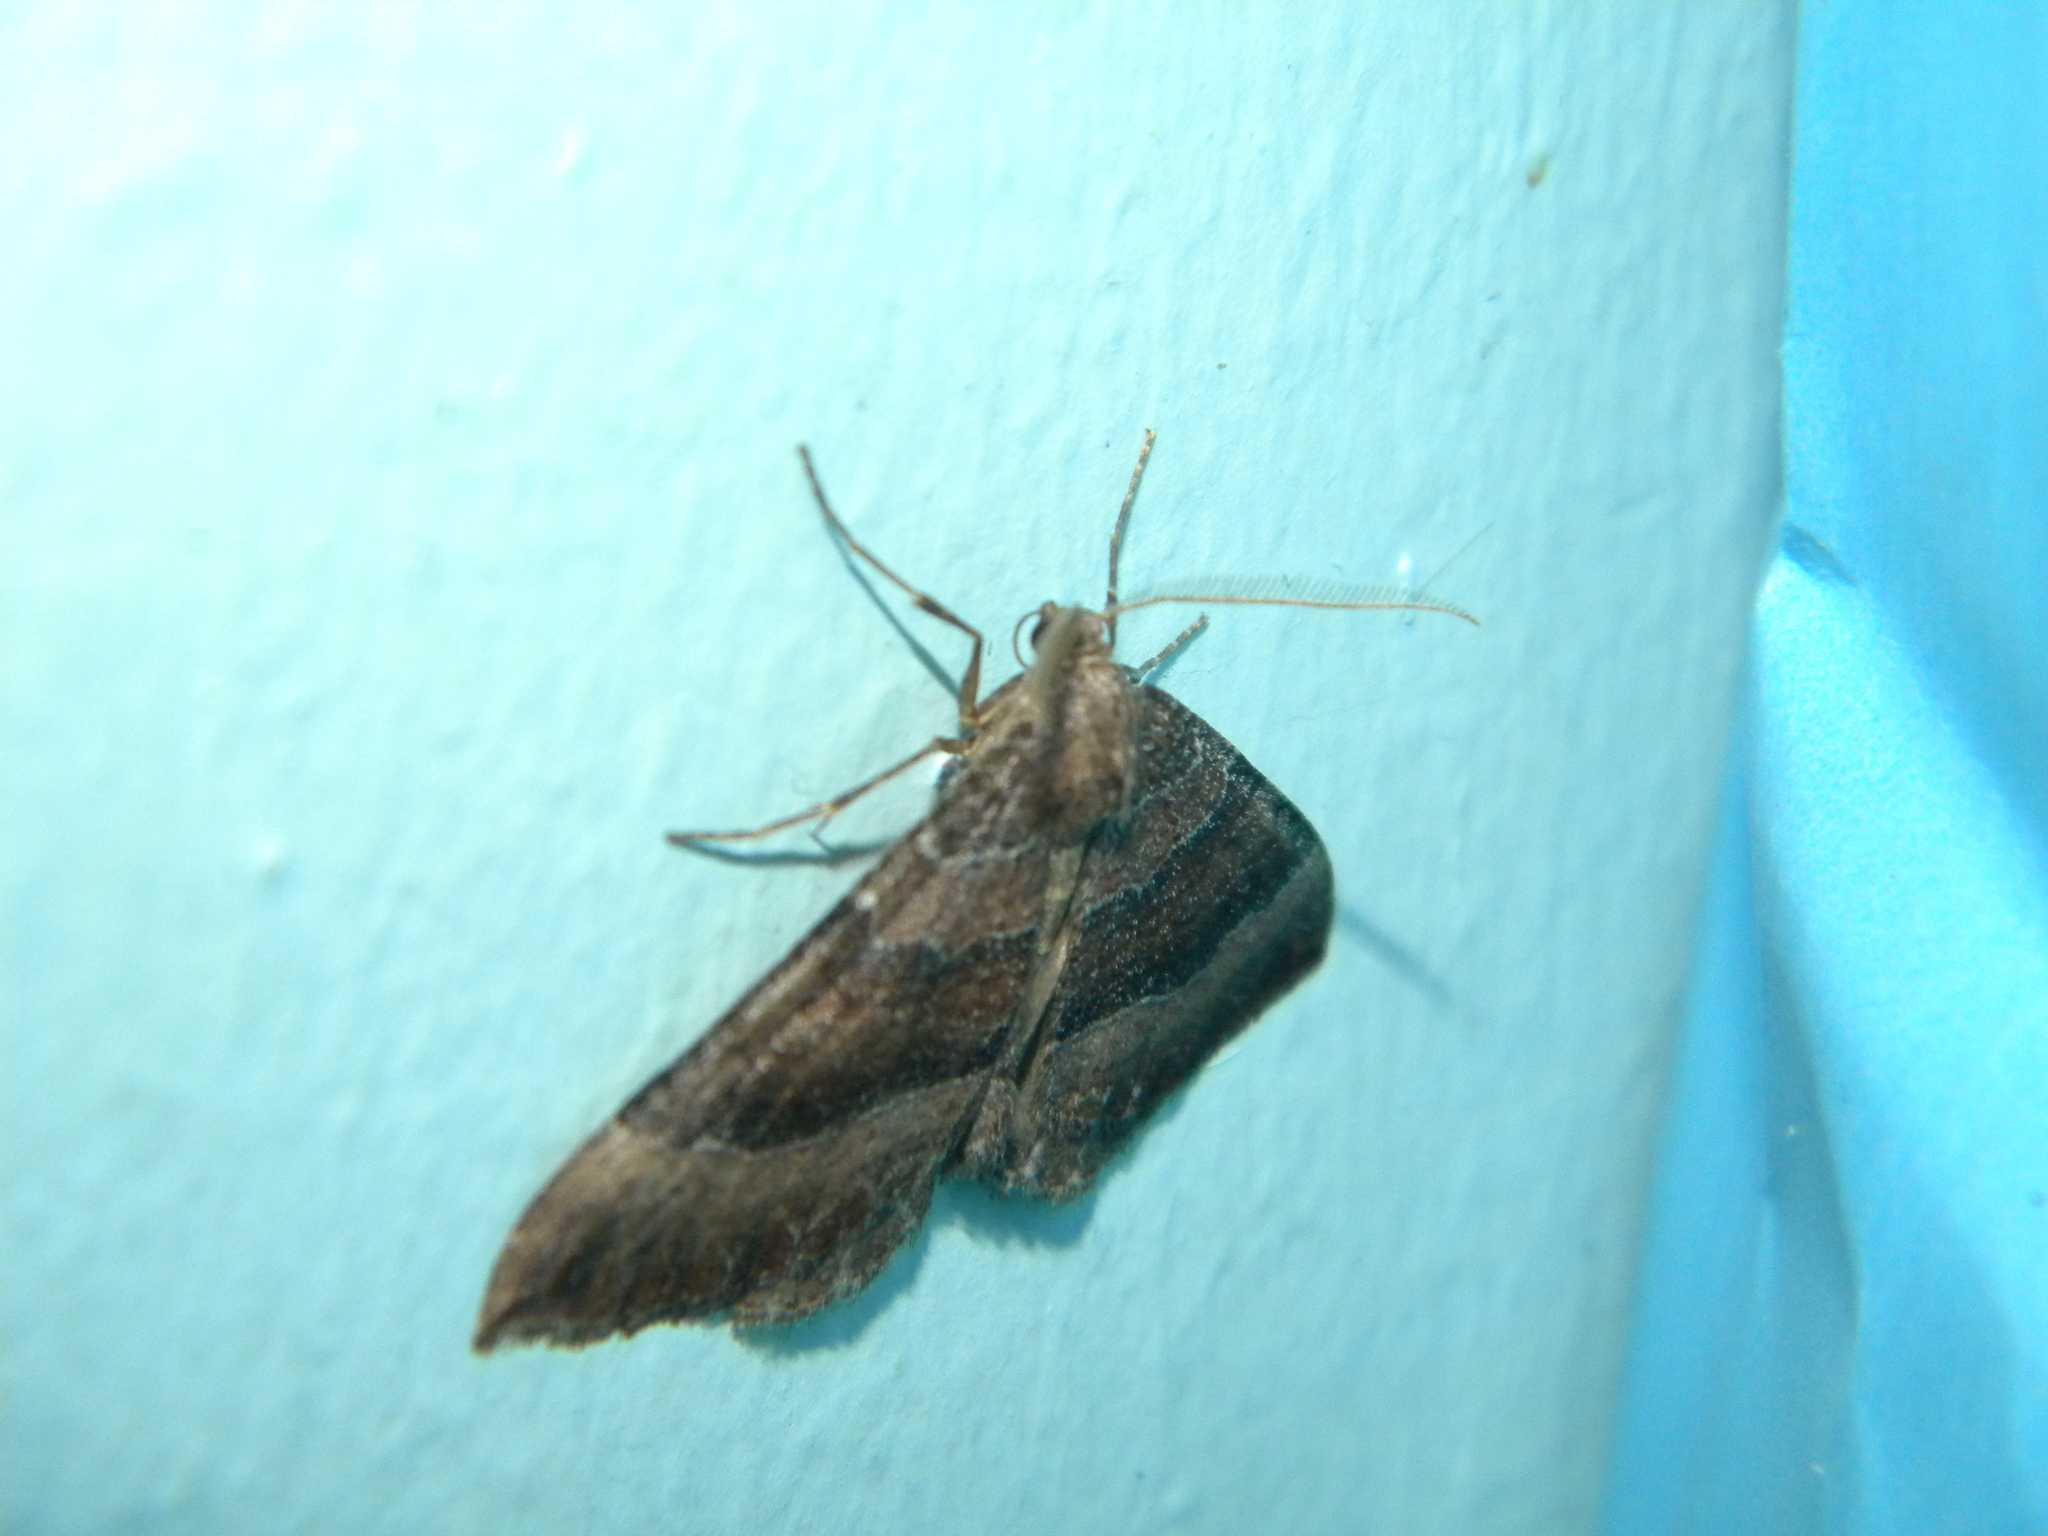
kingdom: Animalia
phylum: Arthropoda
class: Insecta
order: Lepidoptera
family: Geometridae
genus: Larentia
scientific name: Larentia clavaria
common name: Mallow
